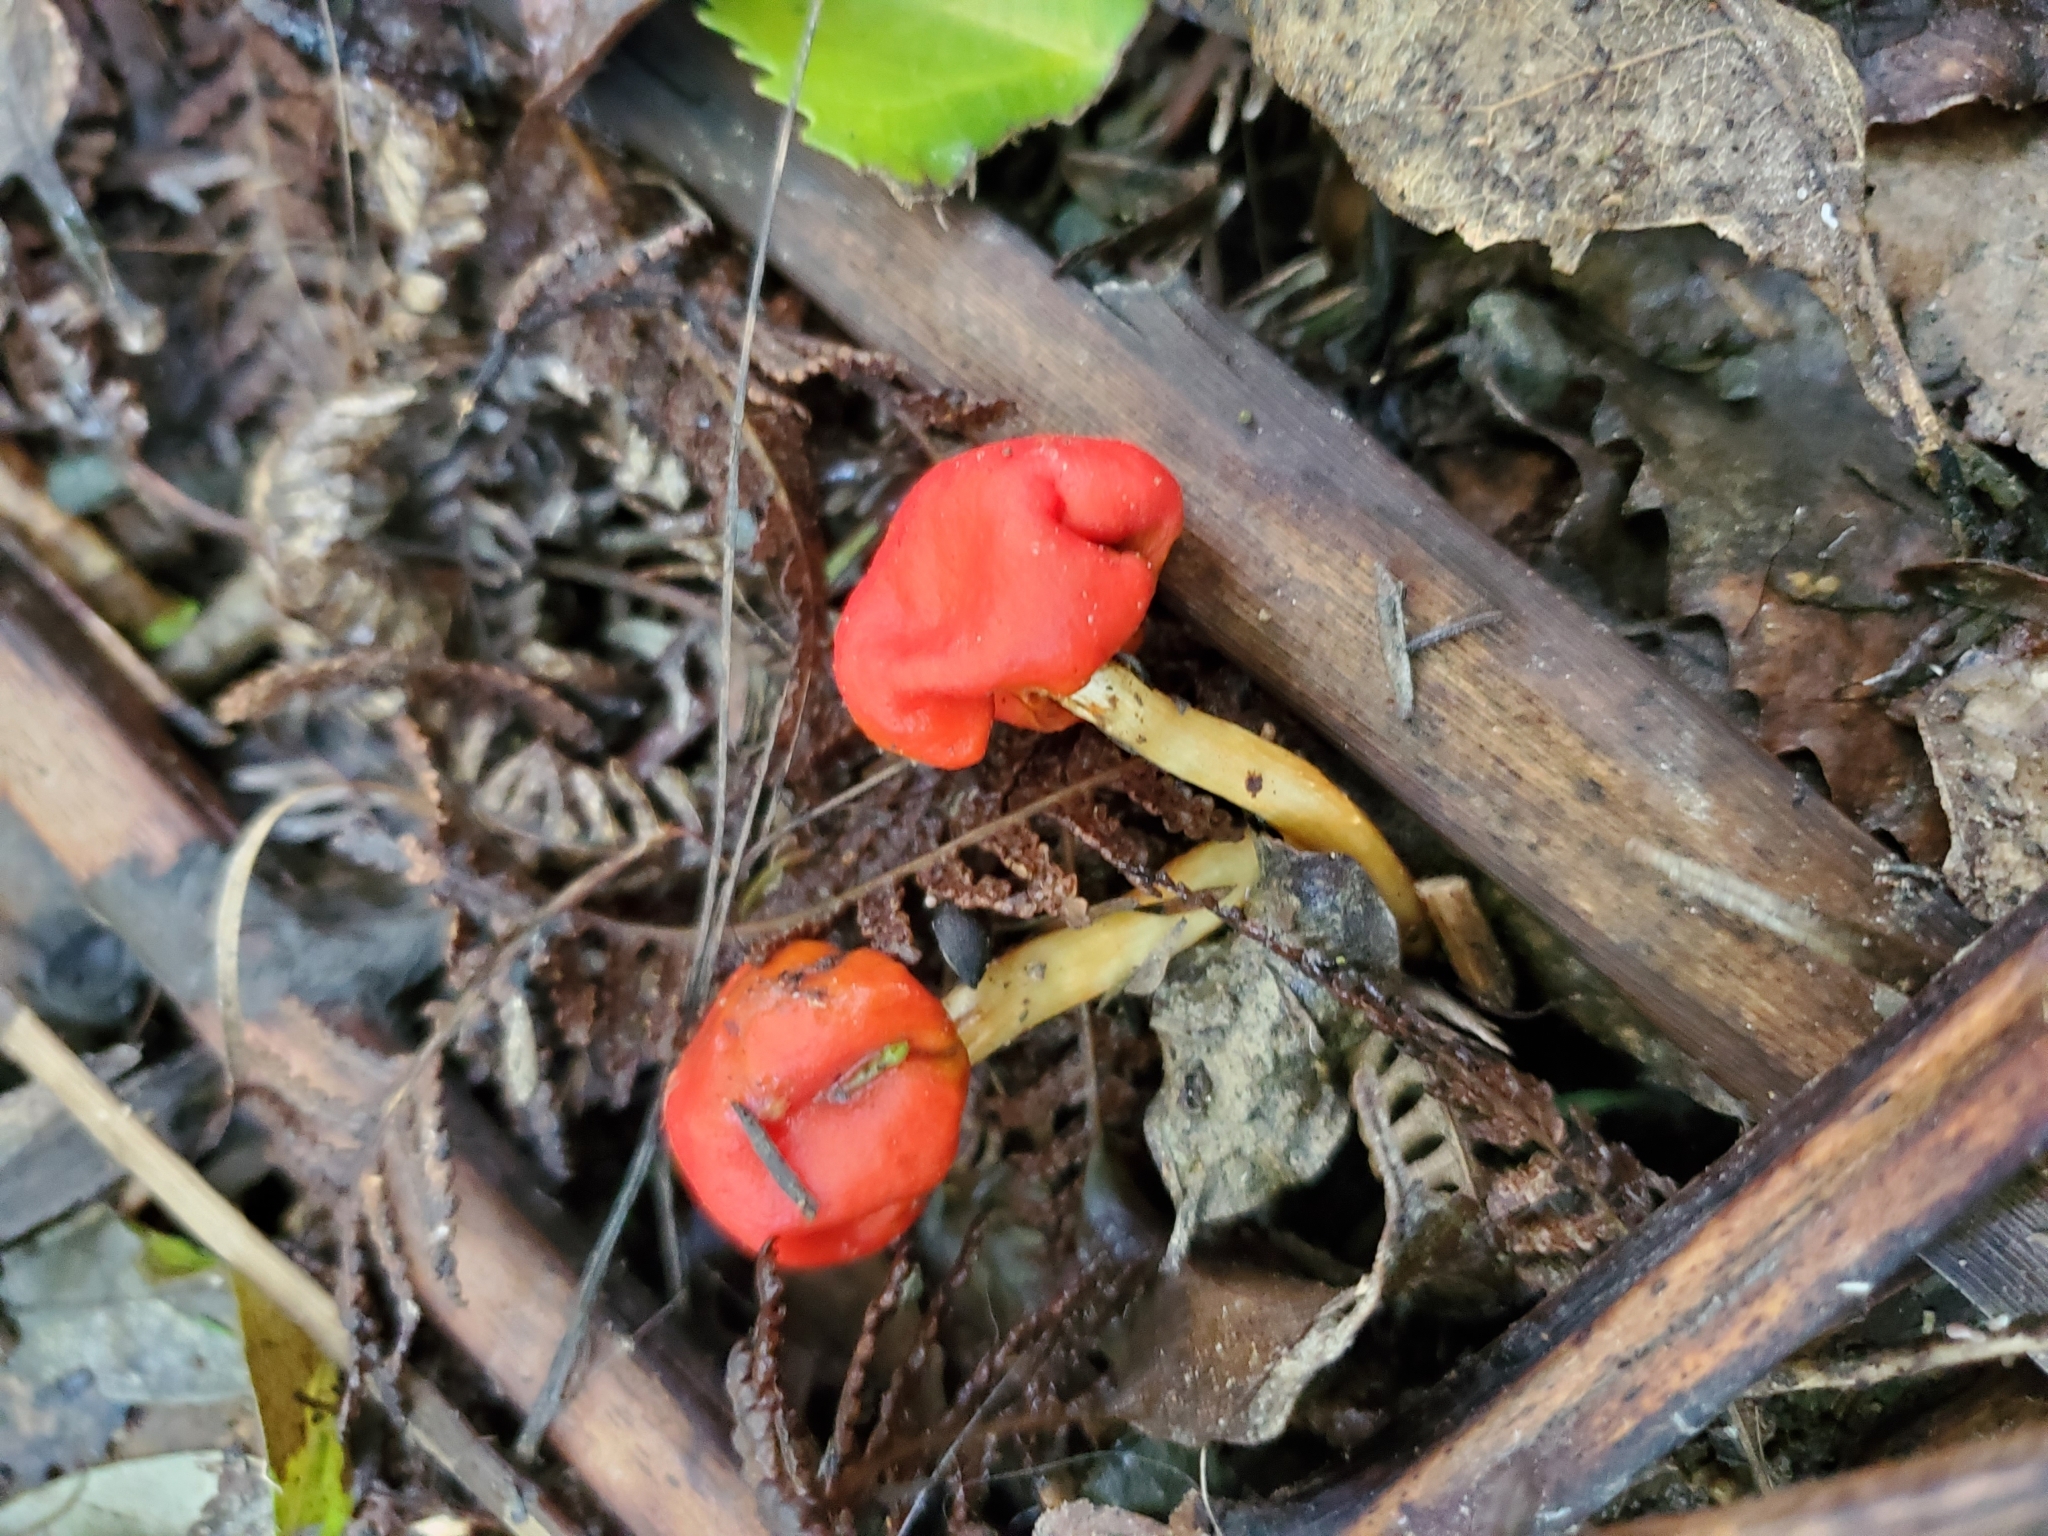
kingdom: Fungi
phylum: Basidiomycota
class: Agaricomycetes
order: Agaricales
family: Strophariaceae
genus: Leratiomyces
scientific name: Leratiomyces erythrocephalus
